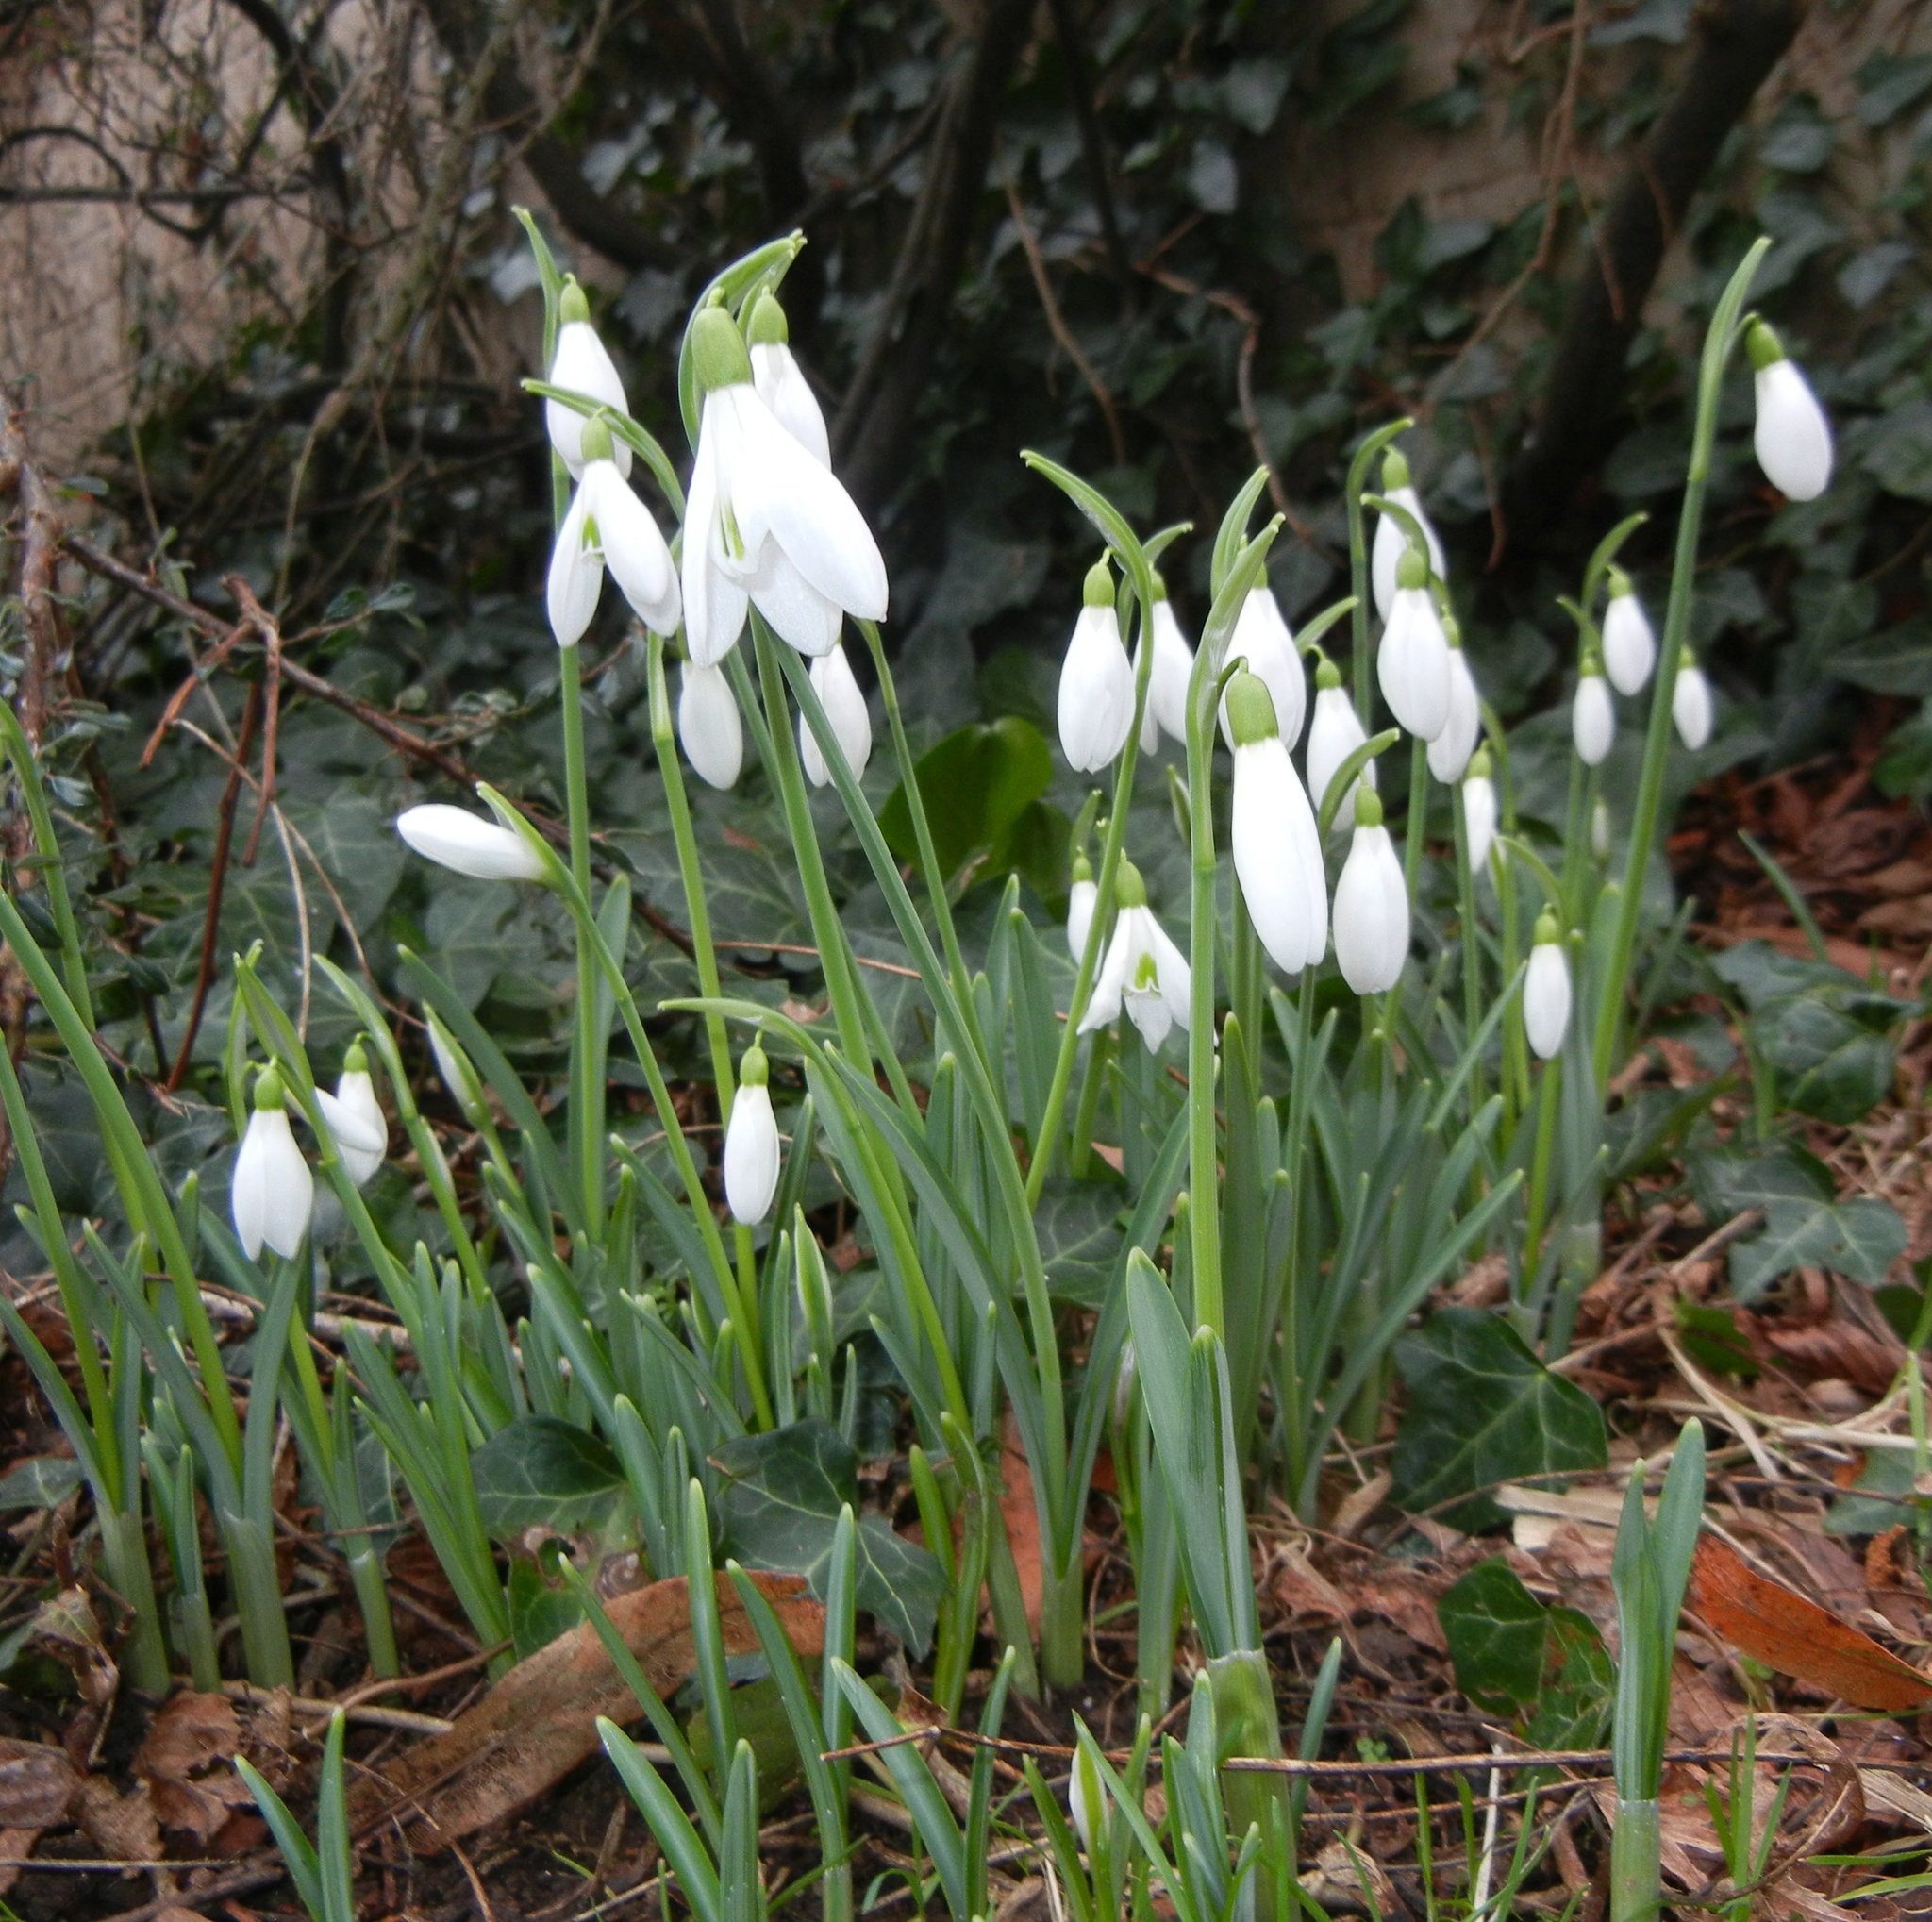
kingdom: Plantae
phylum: Tracheophyta
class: Liliopsida
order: Asparagales
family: Amaryllidaceae
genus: Galanthus
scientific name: Galanthus nivalis
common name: Snowdrop
